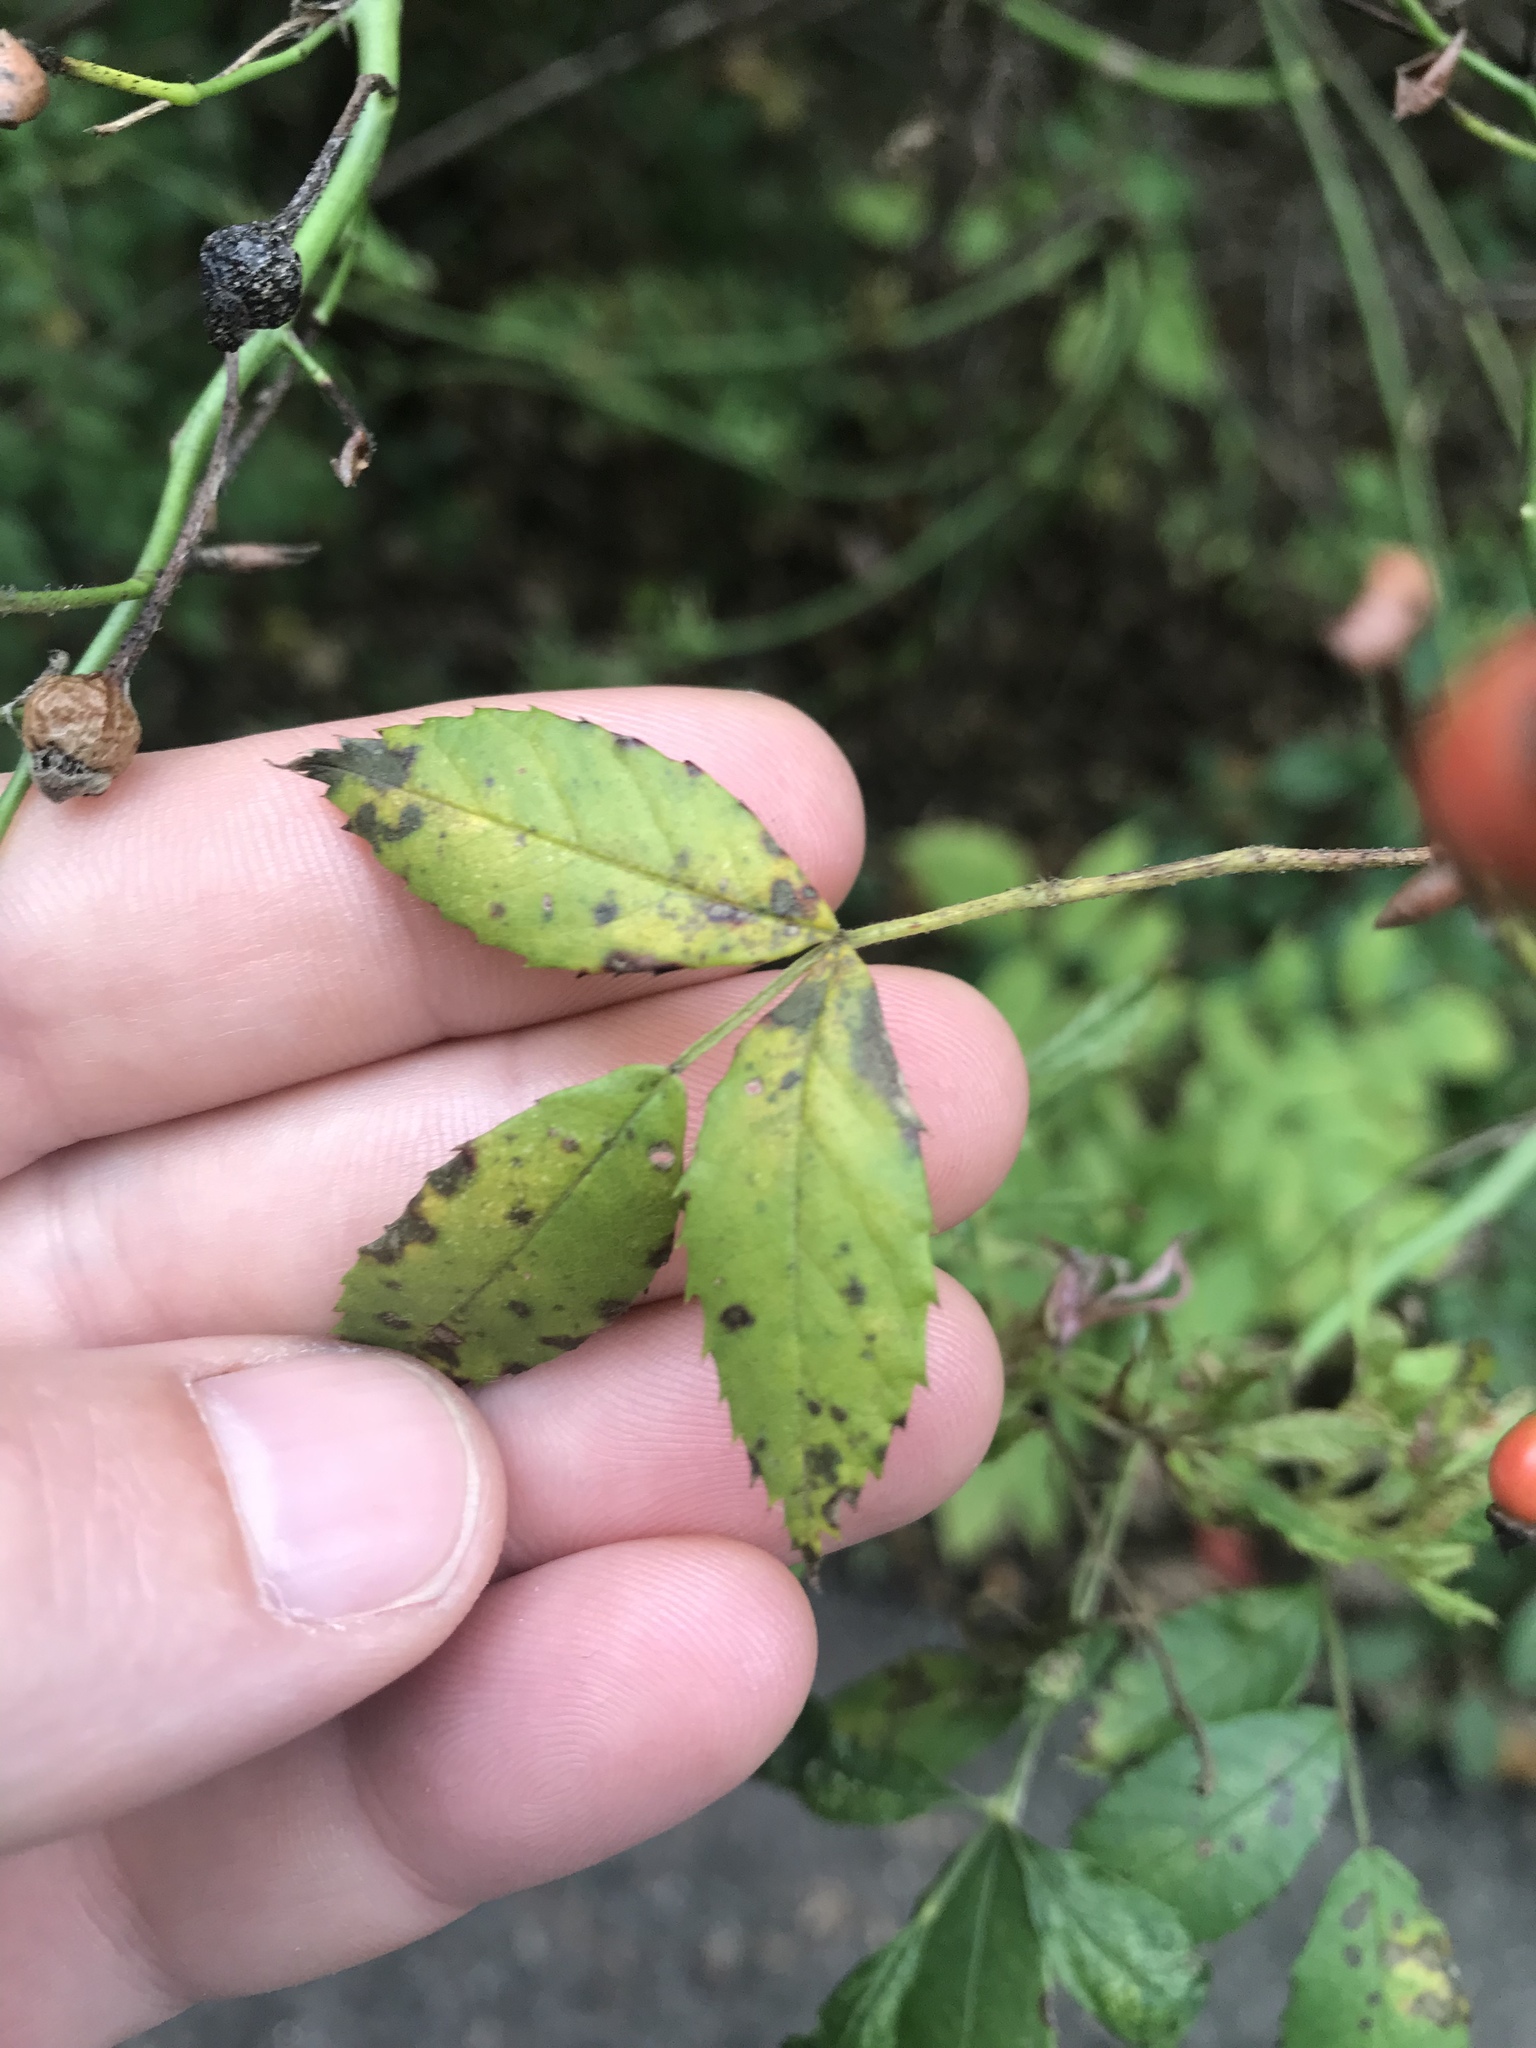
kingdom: Plantae
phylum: Tracheophyta
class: Magnoliopsida
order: Rosales
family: Rosaceae
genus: Rosa
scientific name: Rosa multiflora
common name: Multiflora rose
